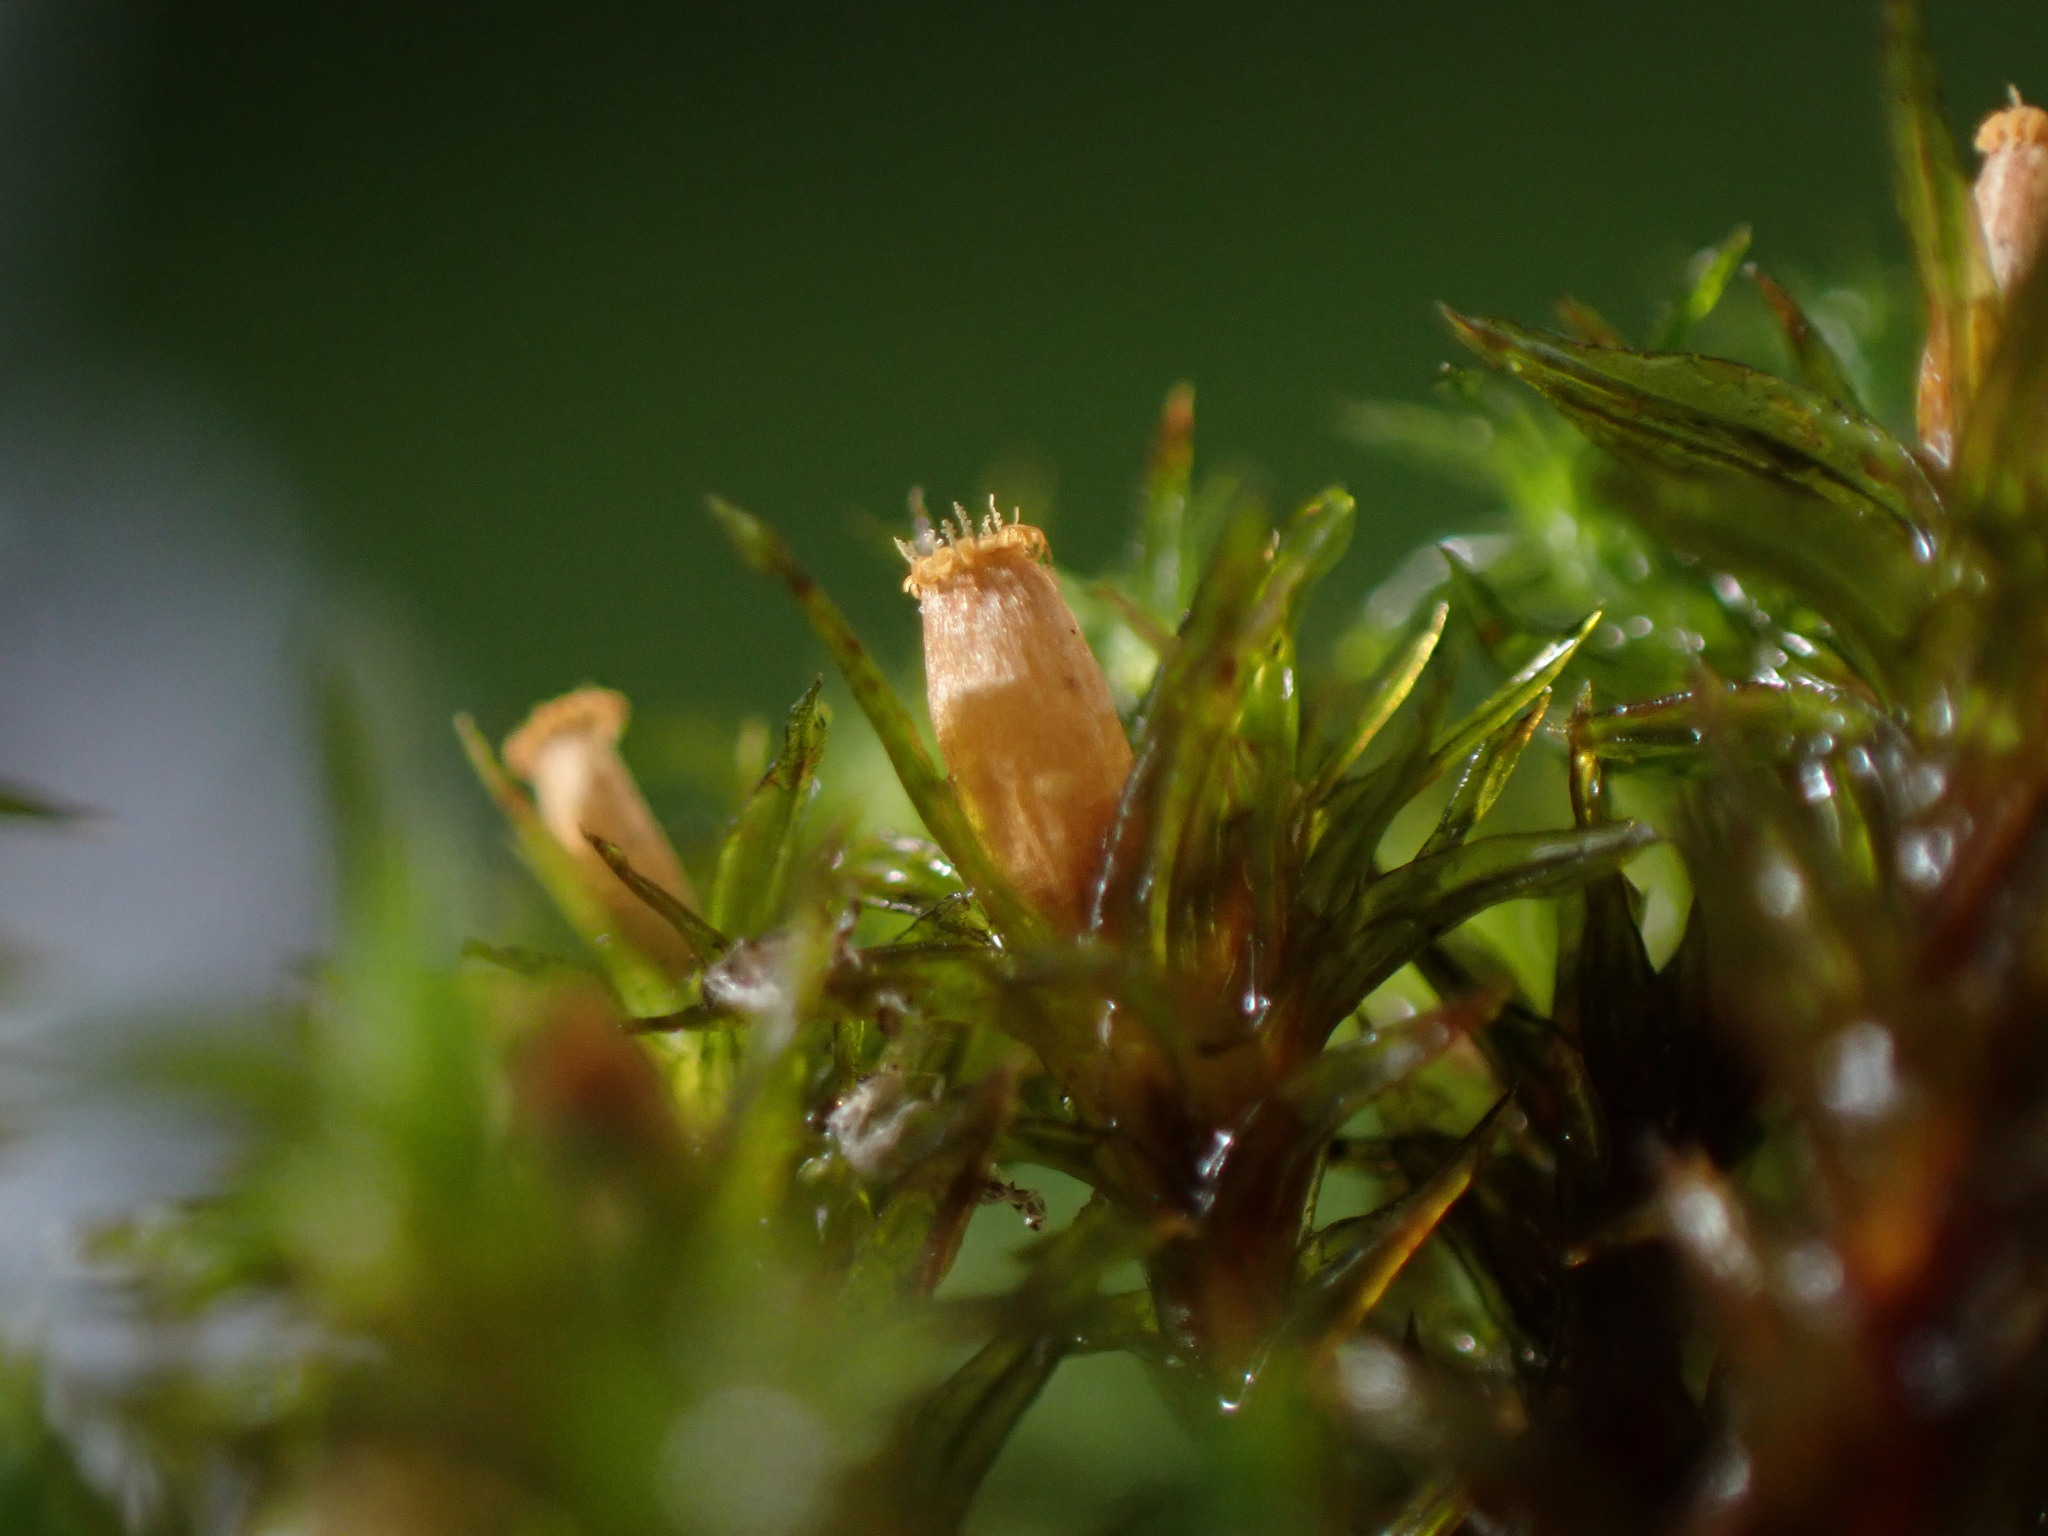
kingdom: Plantae
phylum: Bryophyta
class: Bryopsida
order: Orthotrichales
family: Orthotrichaceae
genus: Lewinskya
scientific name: Lewinskya striata
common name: Shaw's bristle-moss
